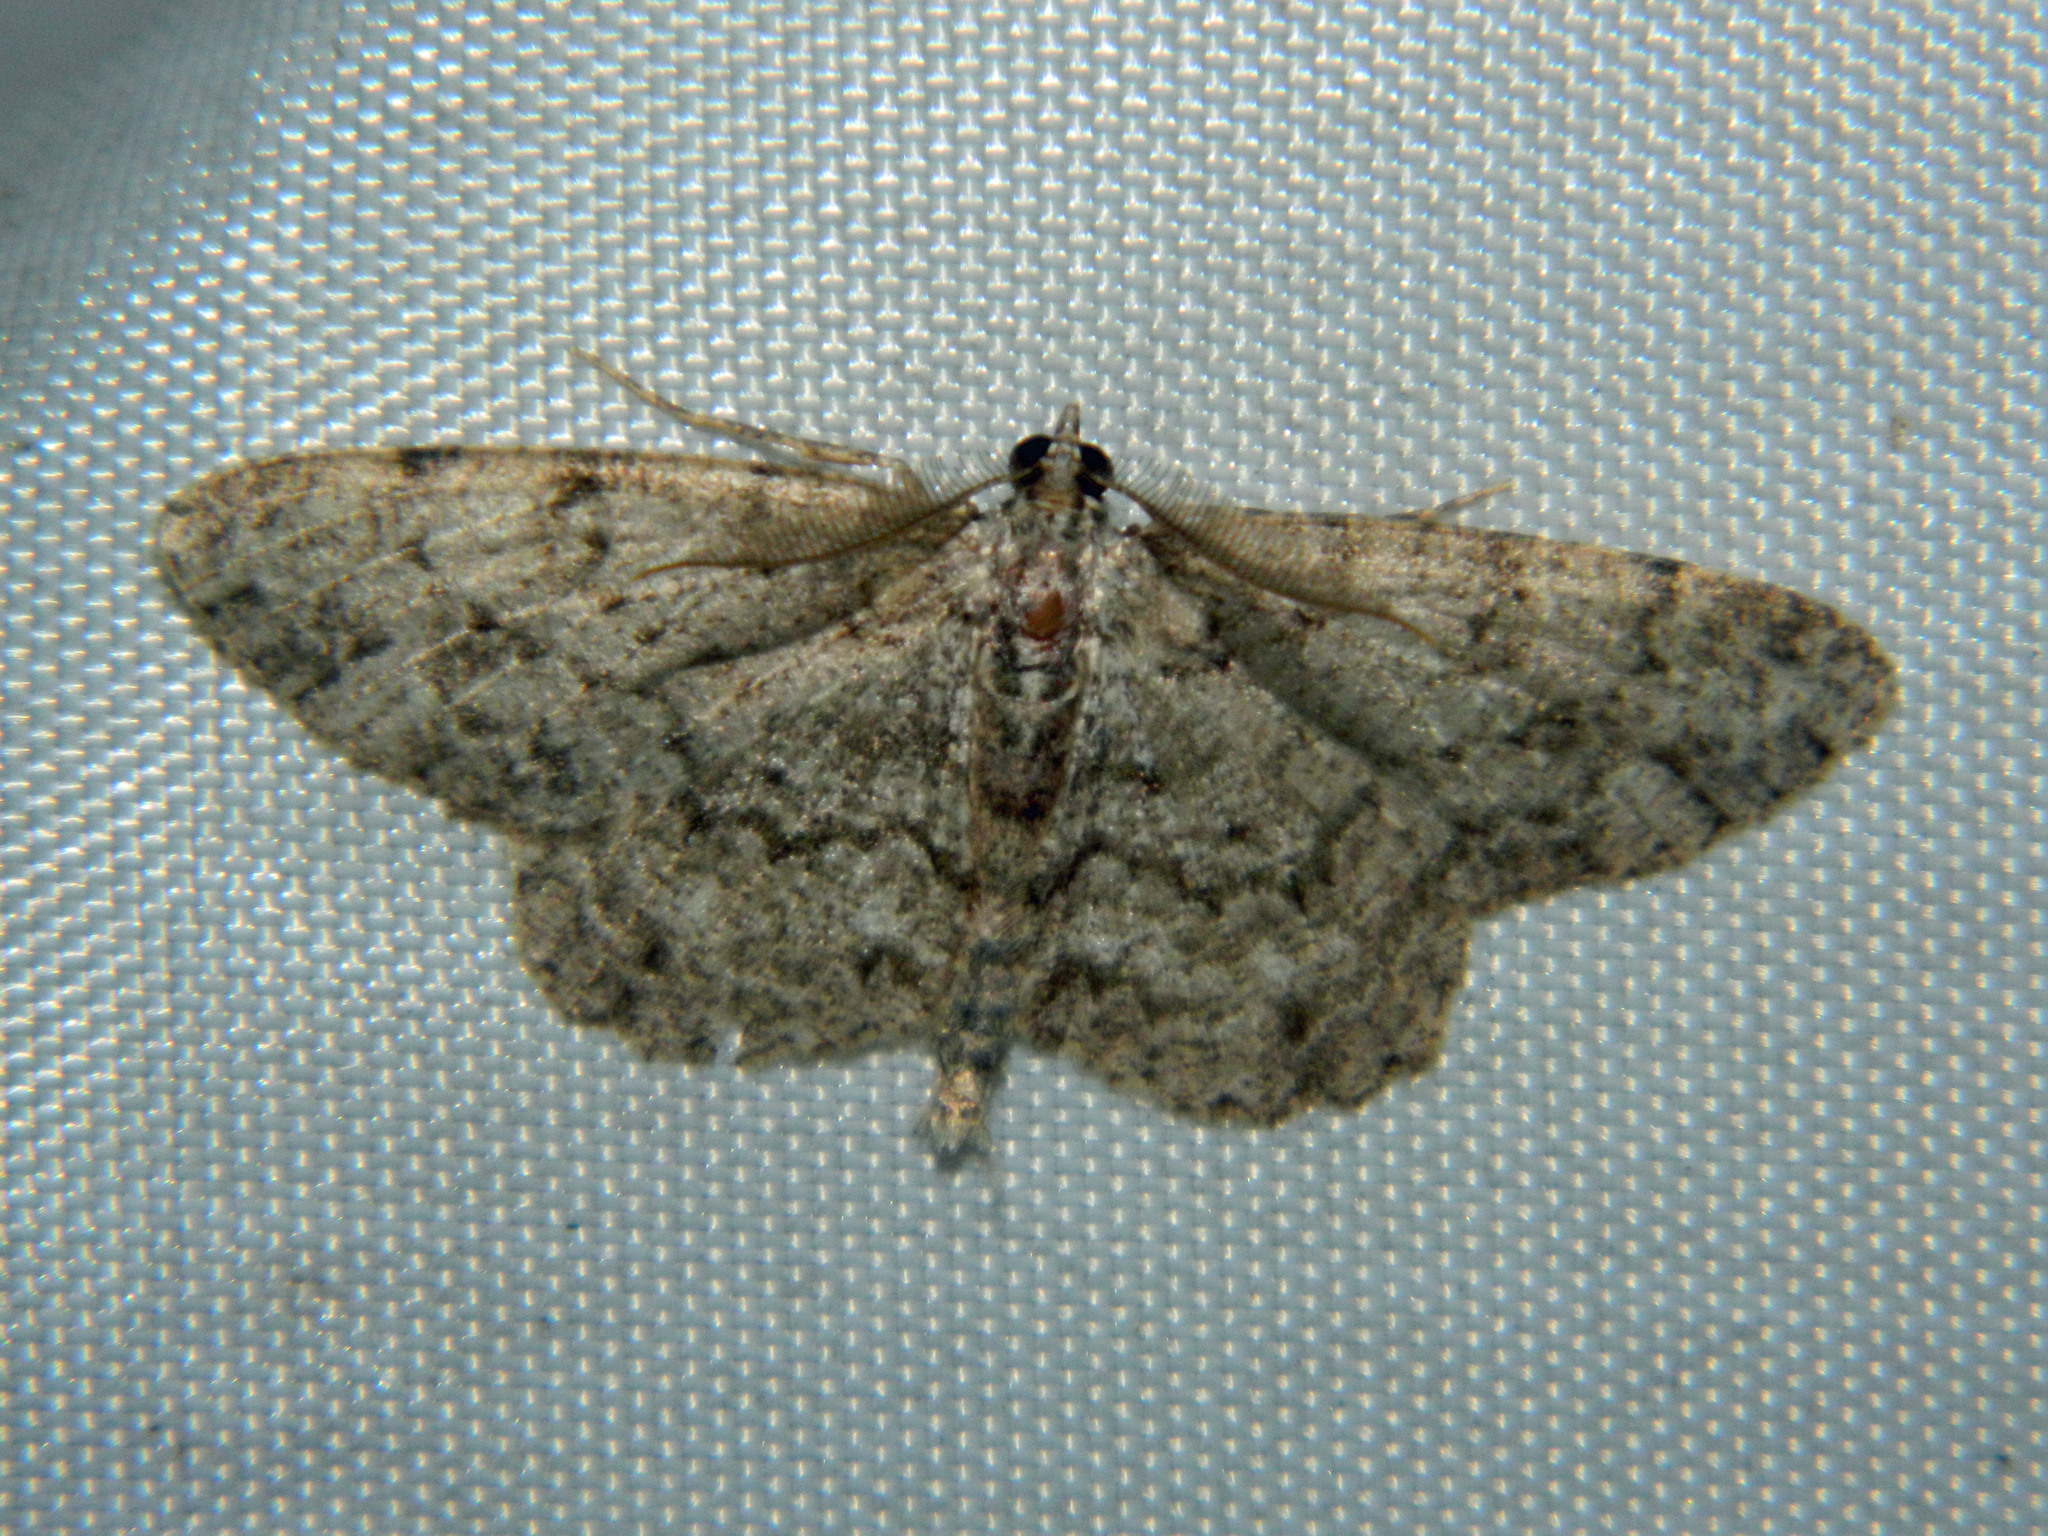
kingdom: Animalia
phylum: Arthropoda
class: Insecta
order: Lepidoptera
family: Geometridae
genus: Protoboarmia
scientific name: Protoboarmia porcelaria
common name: Porcelain gray
